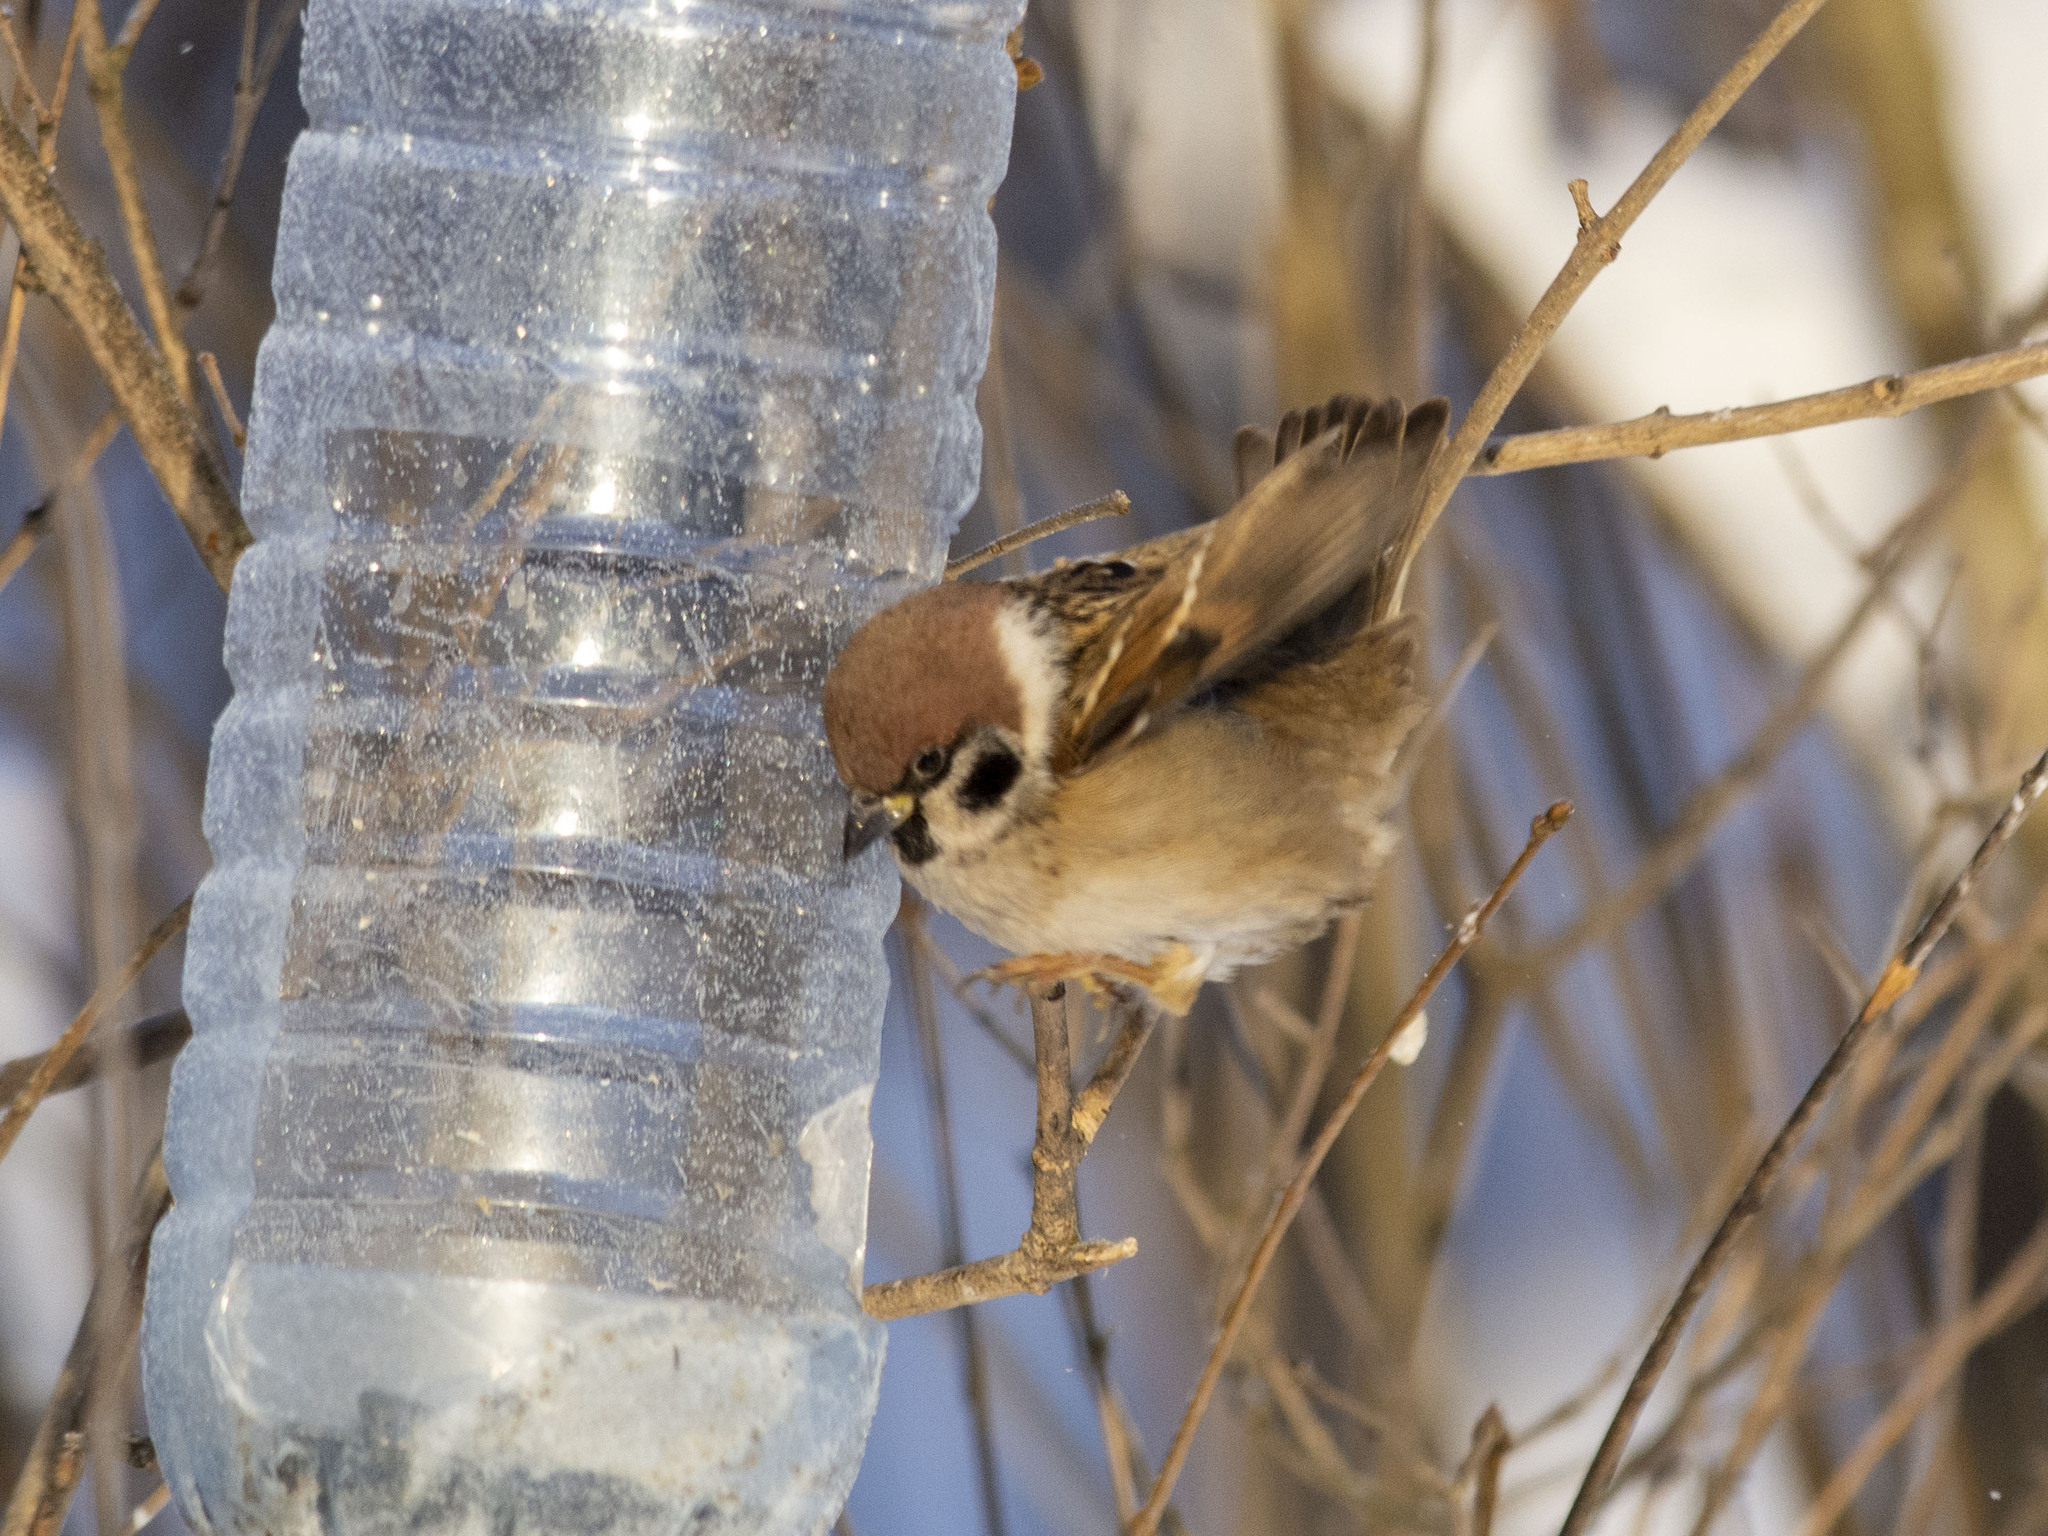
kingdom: Animalia
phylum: Chordata
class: Aves
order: Passeriformes
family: Passeridae
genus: Passer
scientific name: Passer montanus
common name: Eurasian tree sparrow
